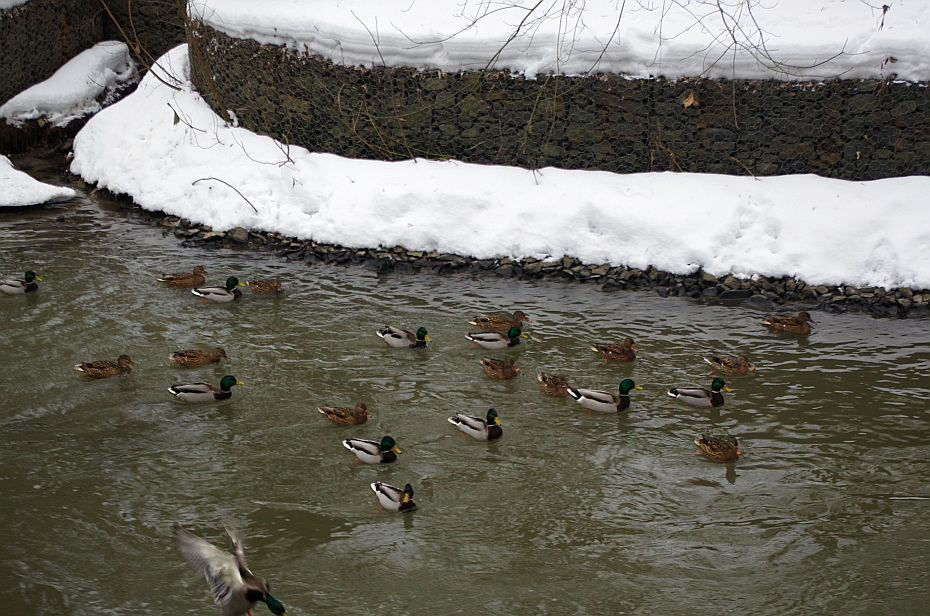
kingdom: Animalia
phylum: Chordata
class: Aves
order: Anseriformes
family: Anatidae
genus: Anas
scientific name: Anas platyrhynchos
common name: Mallard
